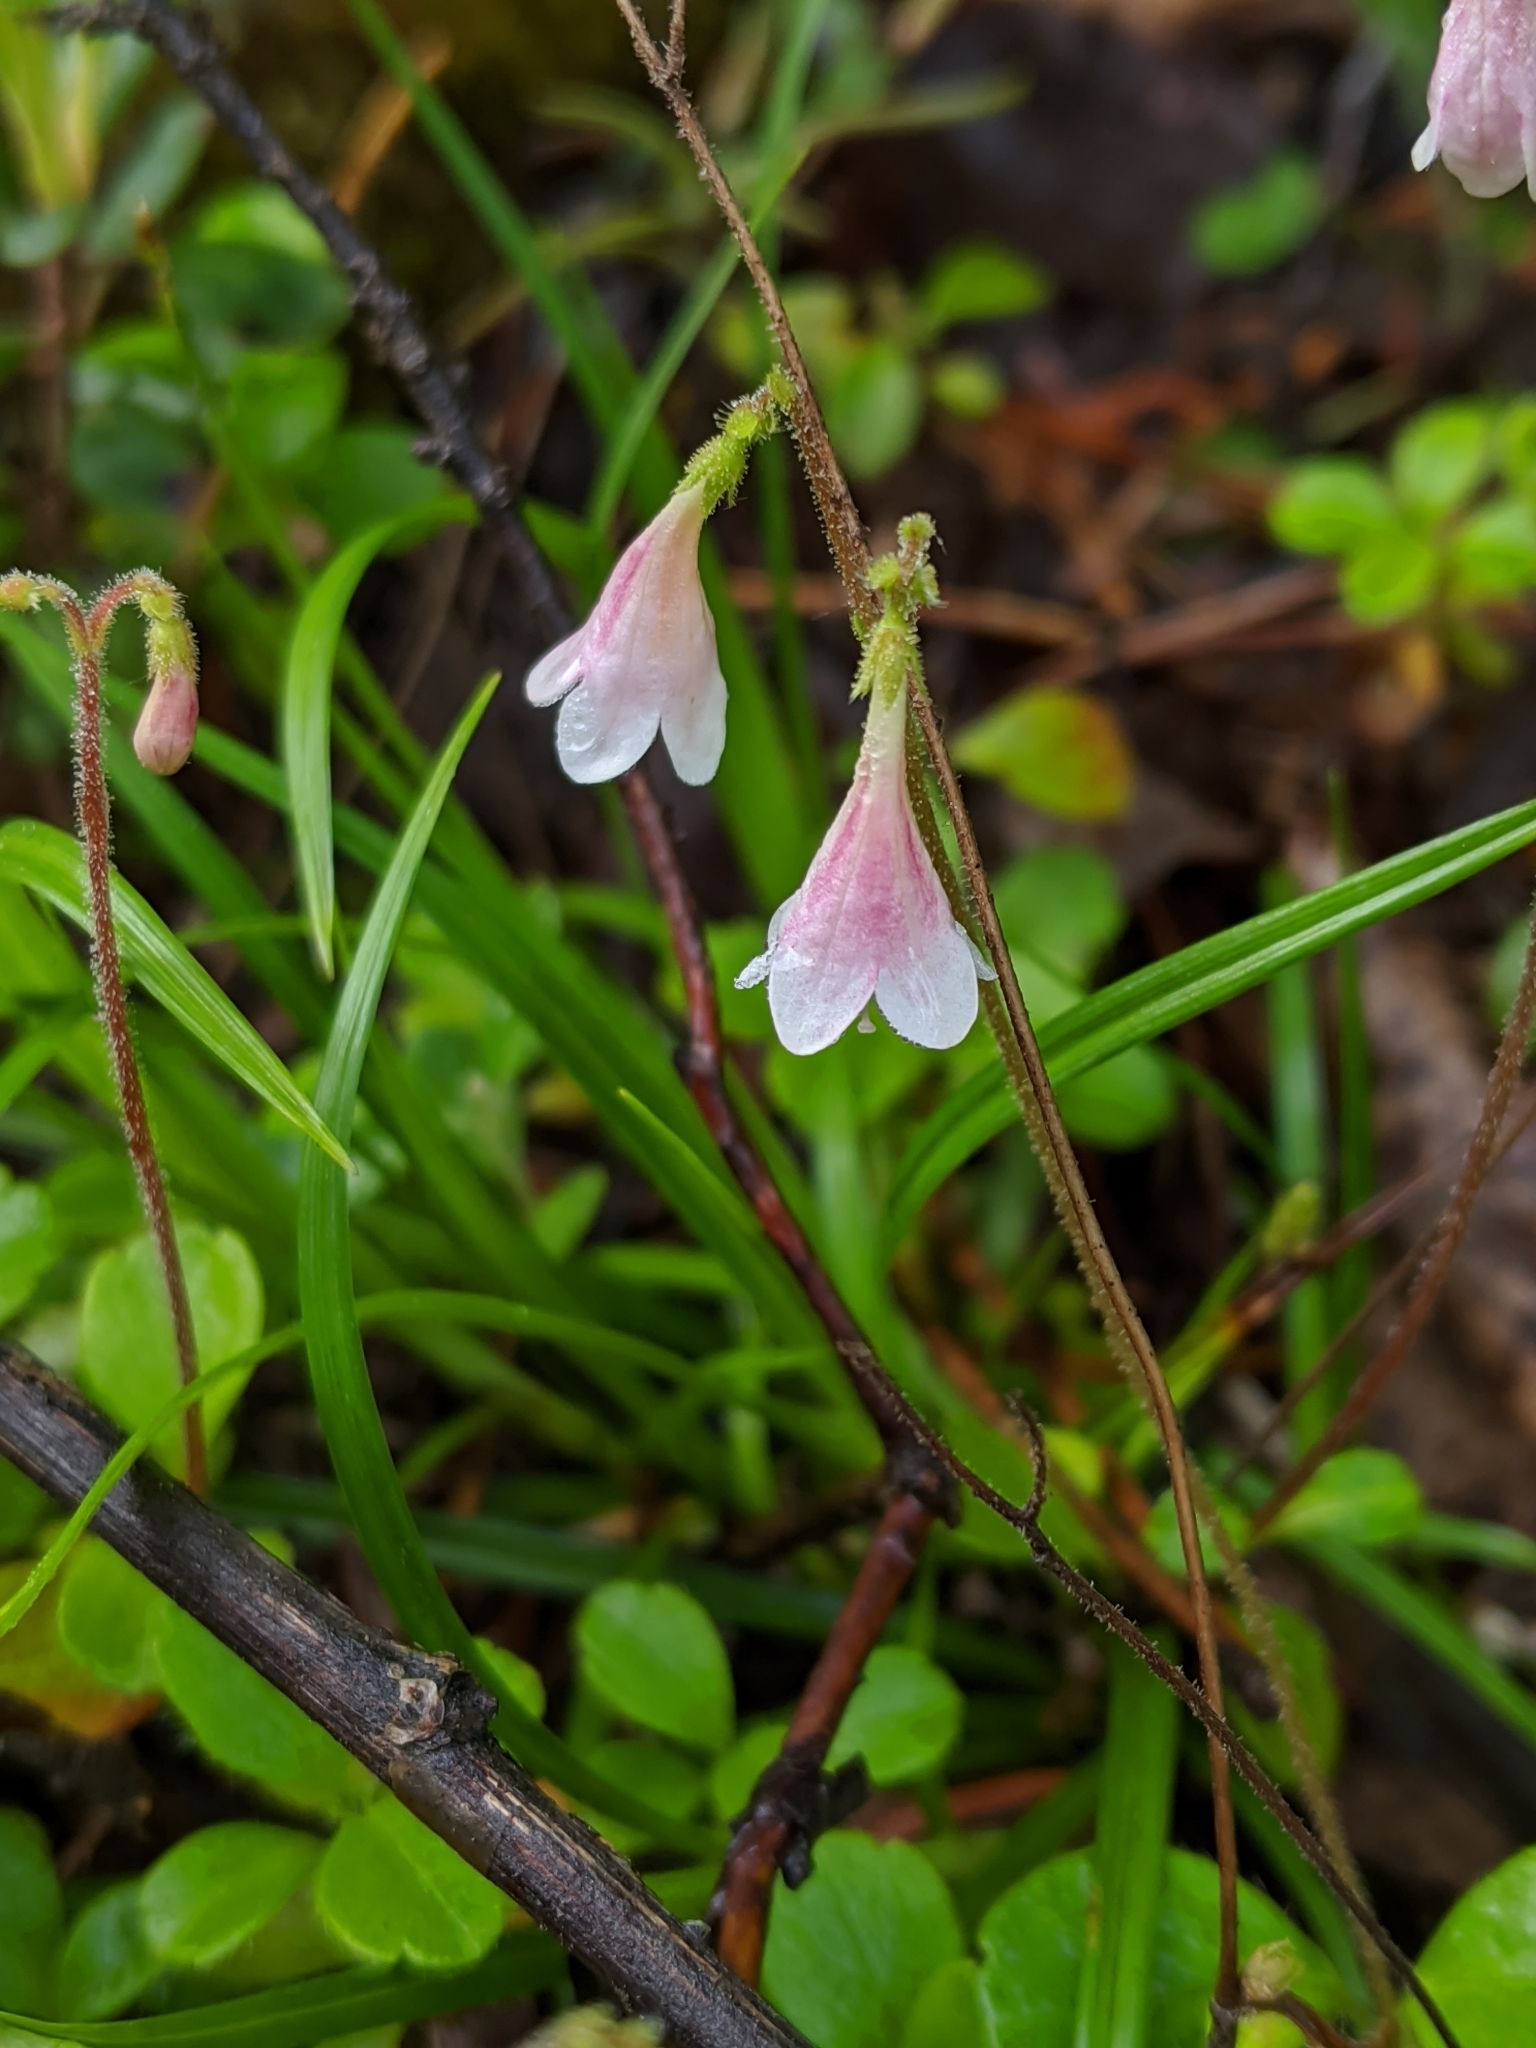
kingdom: Plantae
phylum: Tracheophyta
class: Magnoliopsida
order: Dipsacales
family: Caprifoliaceae
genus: Linnaea
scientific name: Linnaea borealis
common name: Twinflower
